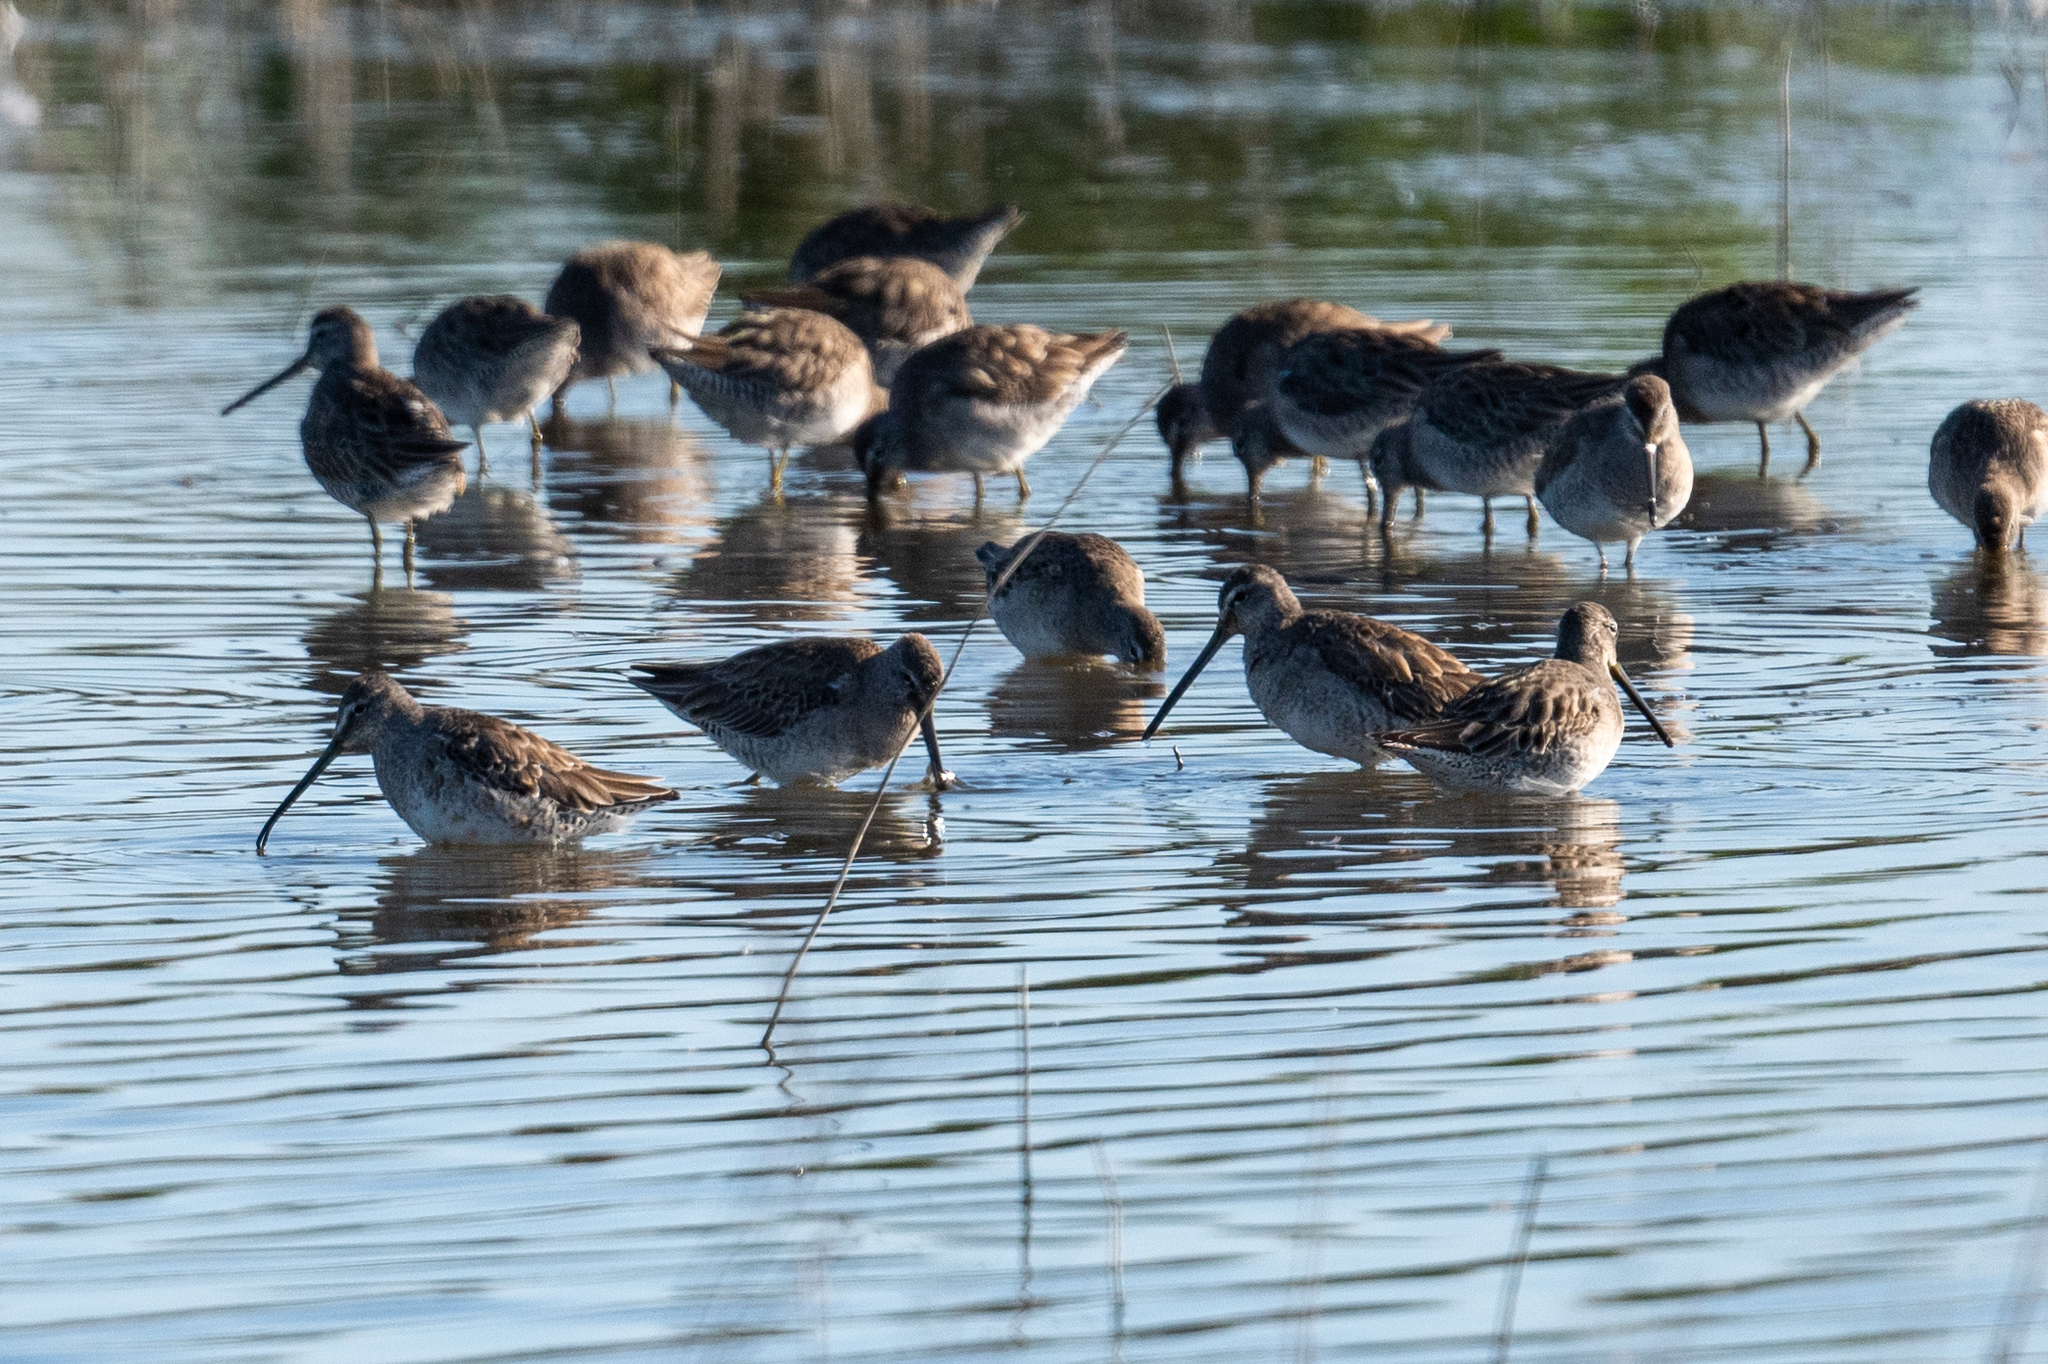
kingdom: Animalia
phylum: Chordata
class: Aves
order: Charadriiformes
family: Scolopacidae
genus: Limnodromus
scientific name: Limnodromus scolopaceus
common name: Long-billed dowitcher
